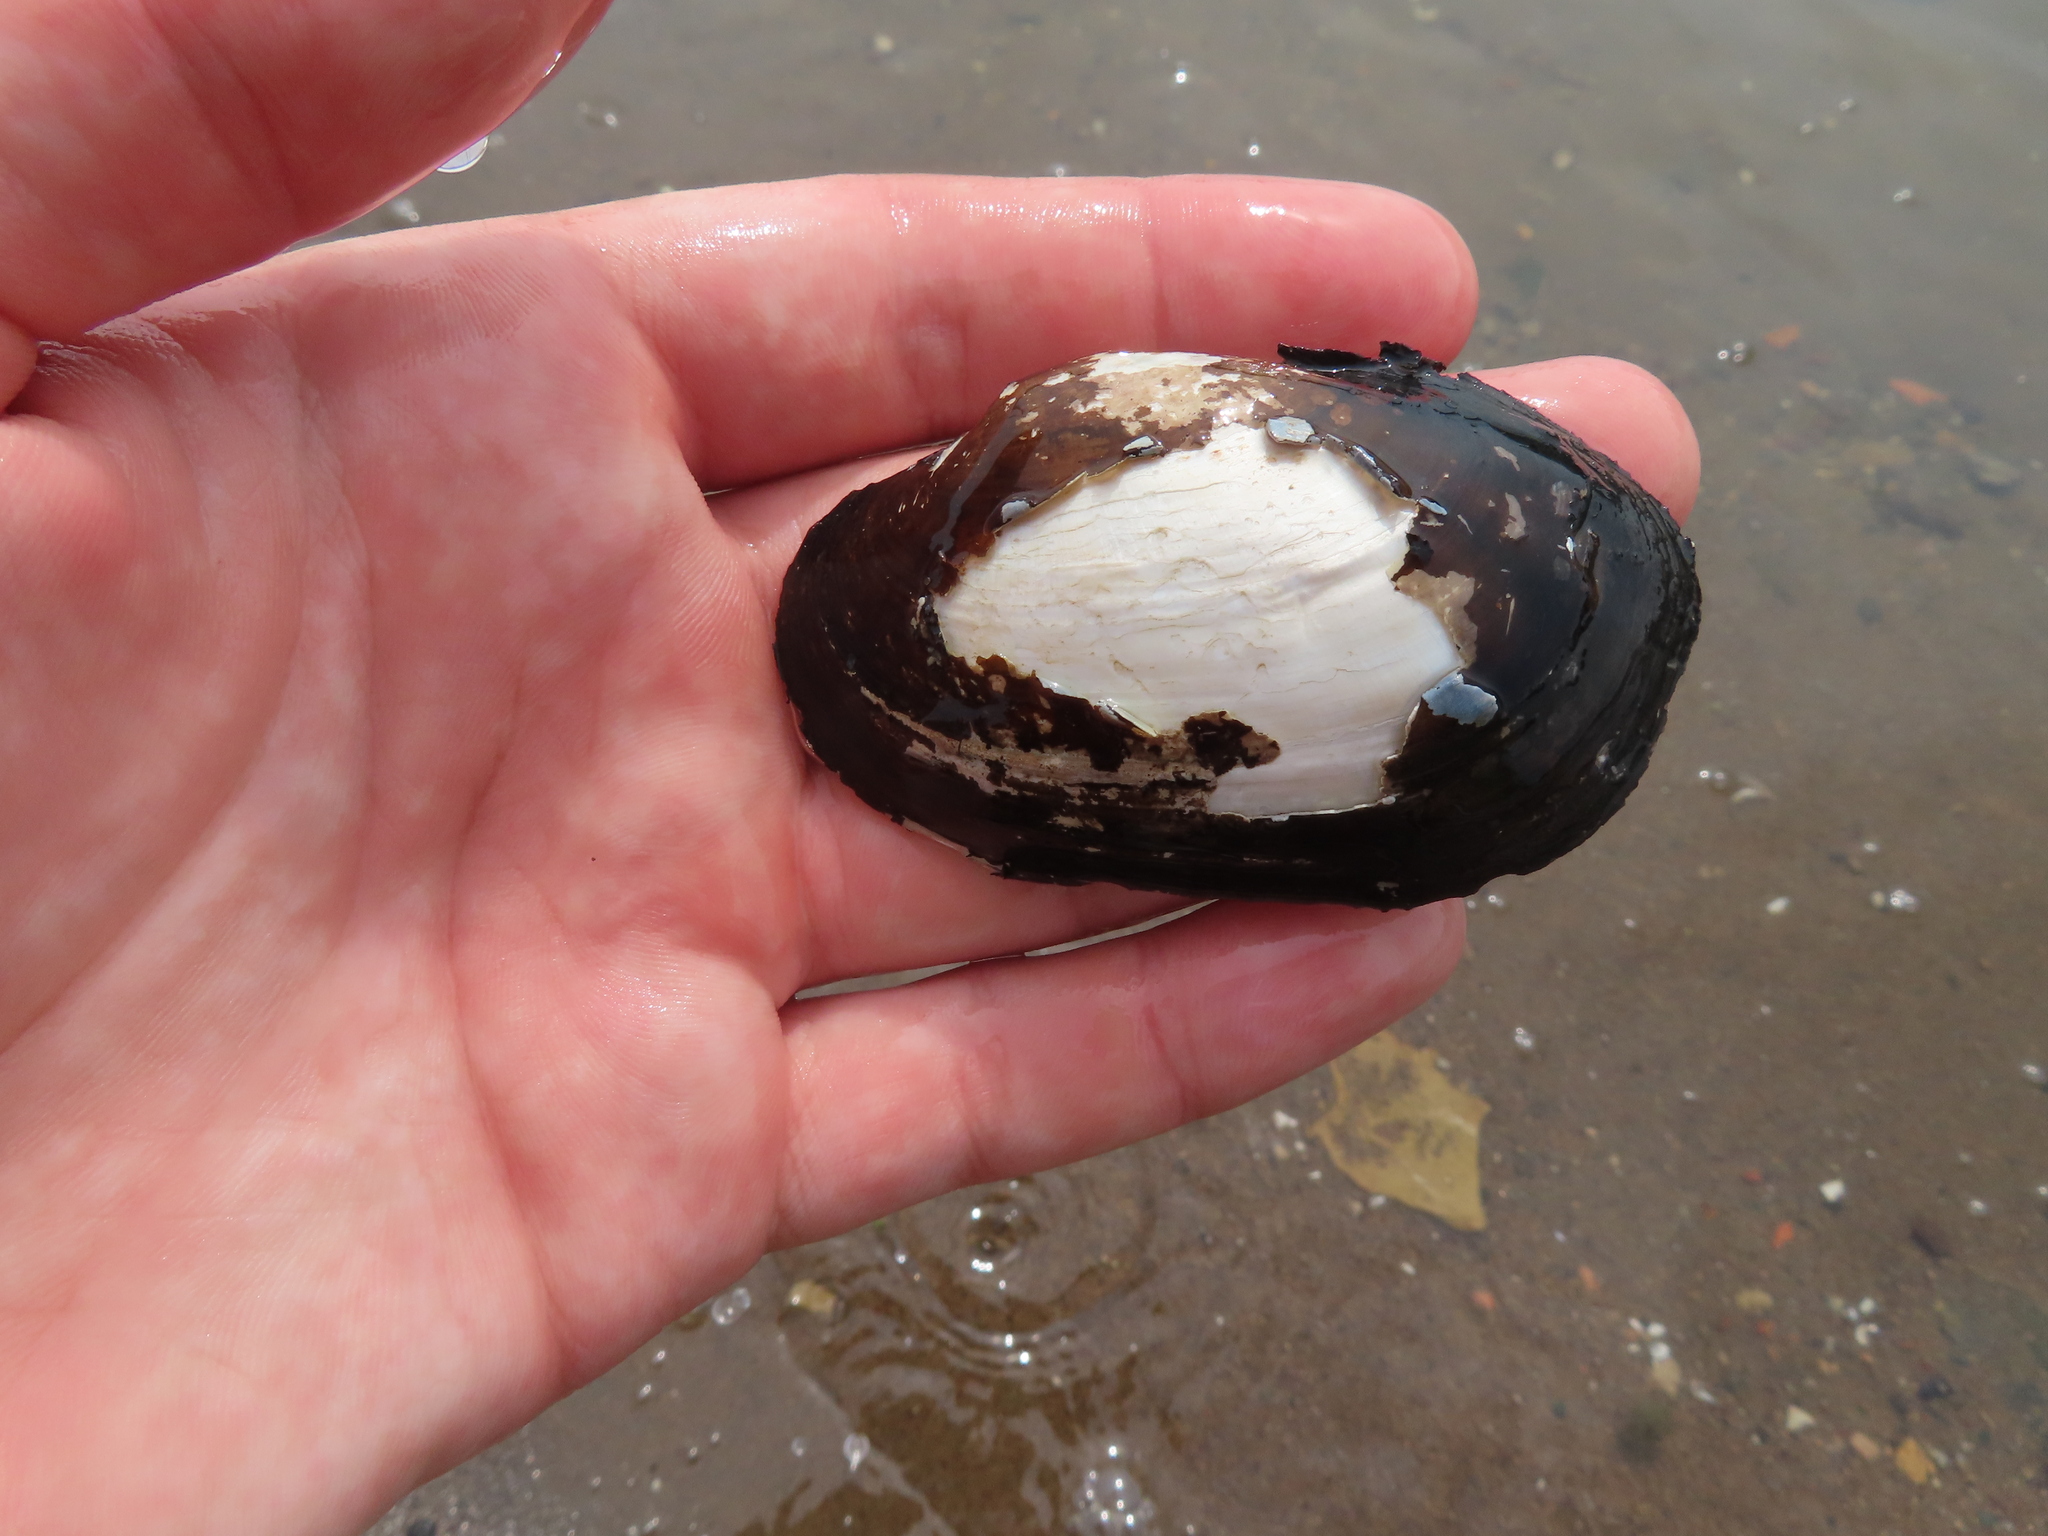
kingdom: Animalia
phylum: Mollusca
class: Bivalvia
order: Unionida
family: Unionidae
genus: Lampsilis
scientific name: Lampsilis siliquoidea
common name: Fatmucket
